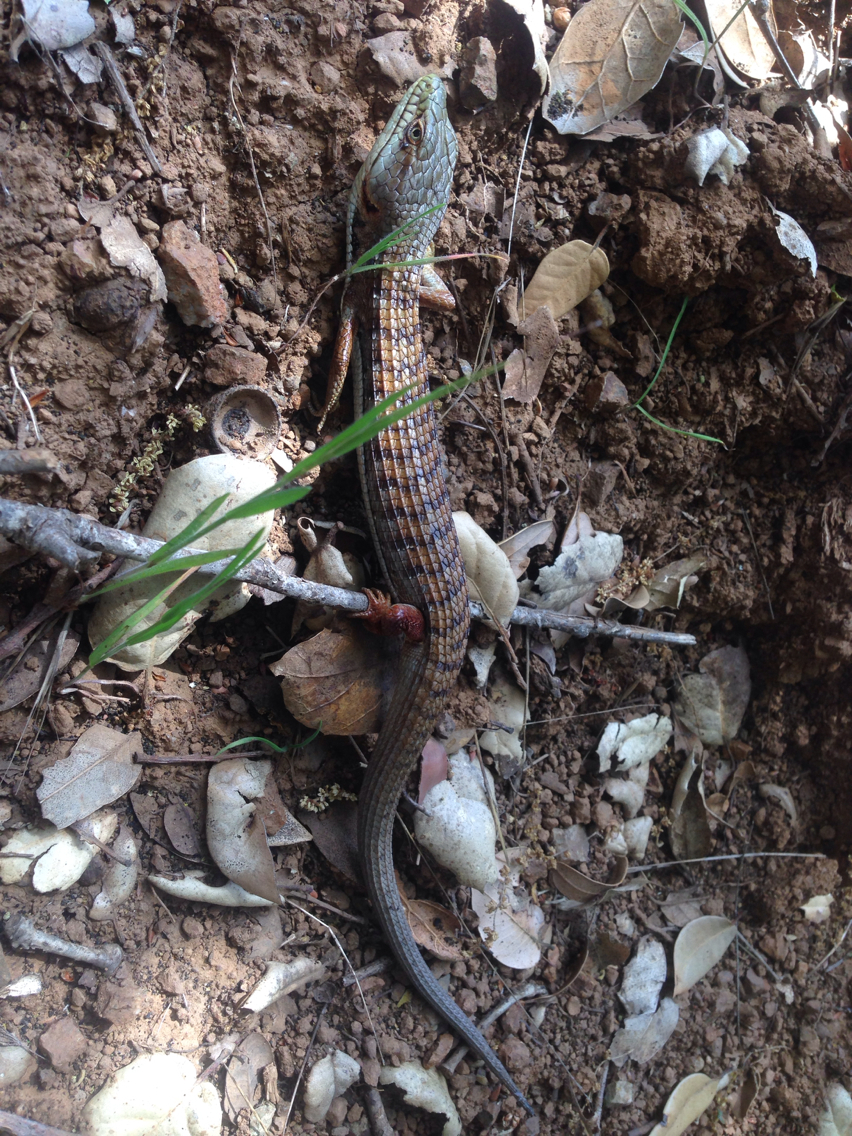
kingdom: Animalia
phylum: Chordata
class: Squamata
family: Anguidae
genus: Elgaria
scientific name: Elgaria multicarinata
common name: Southern alligator lizard
